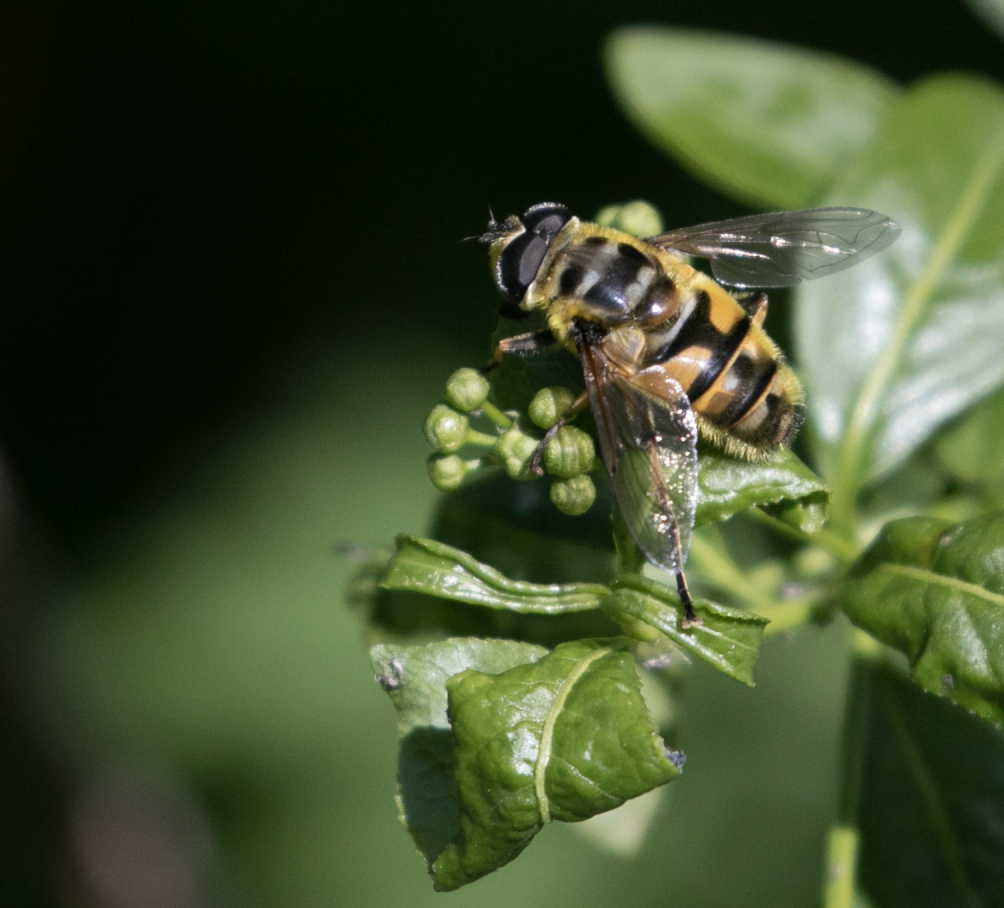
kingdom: Animalia
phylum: Arthropoda
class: Insecta
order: Diptera
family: Syrphidae
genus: Myathropa
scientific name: Myathropa florea
